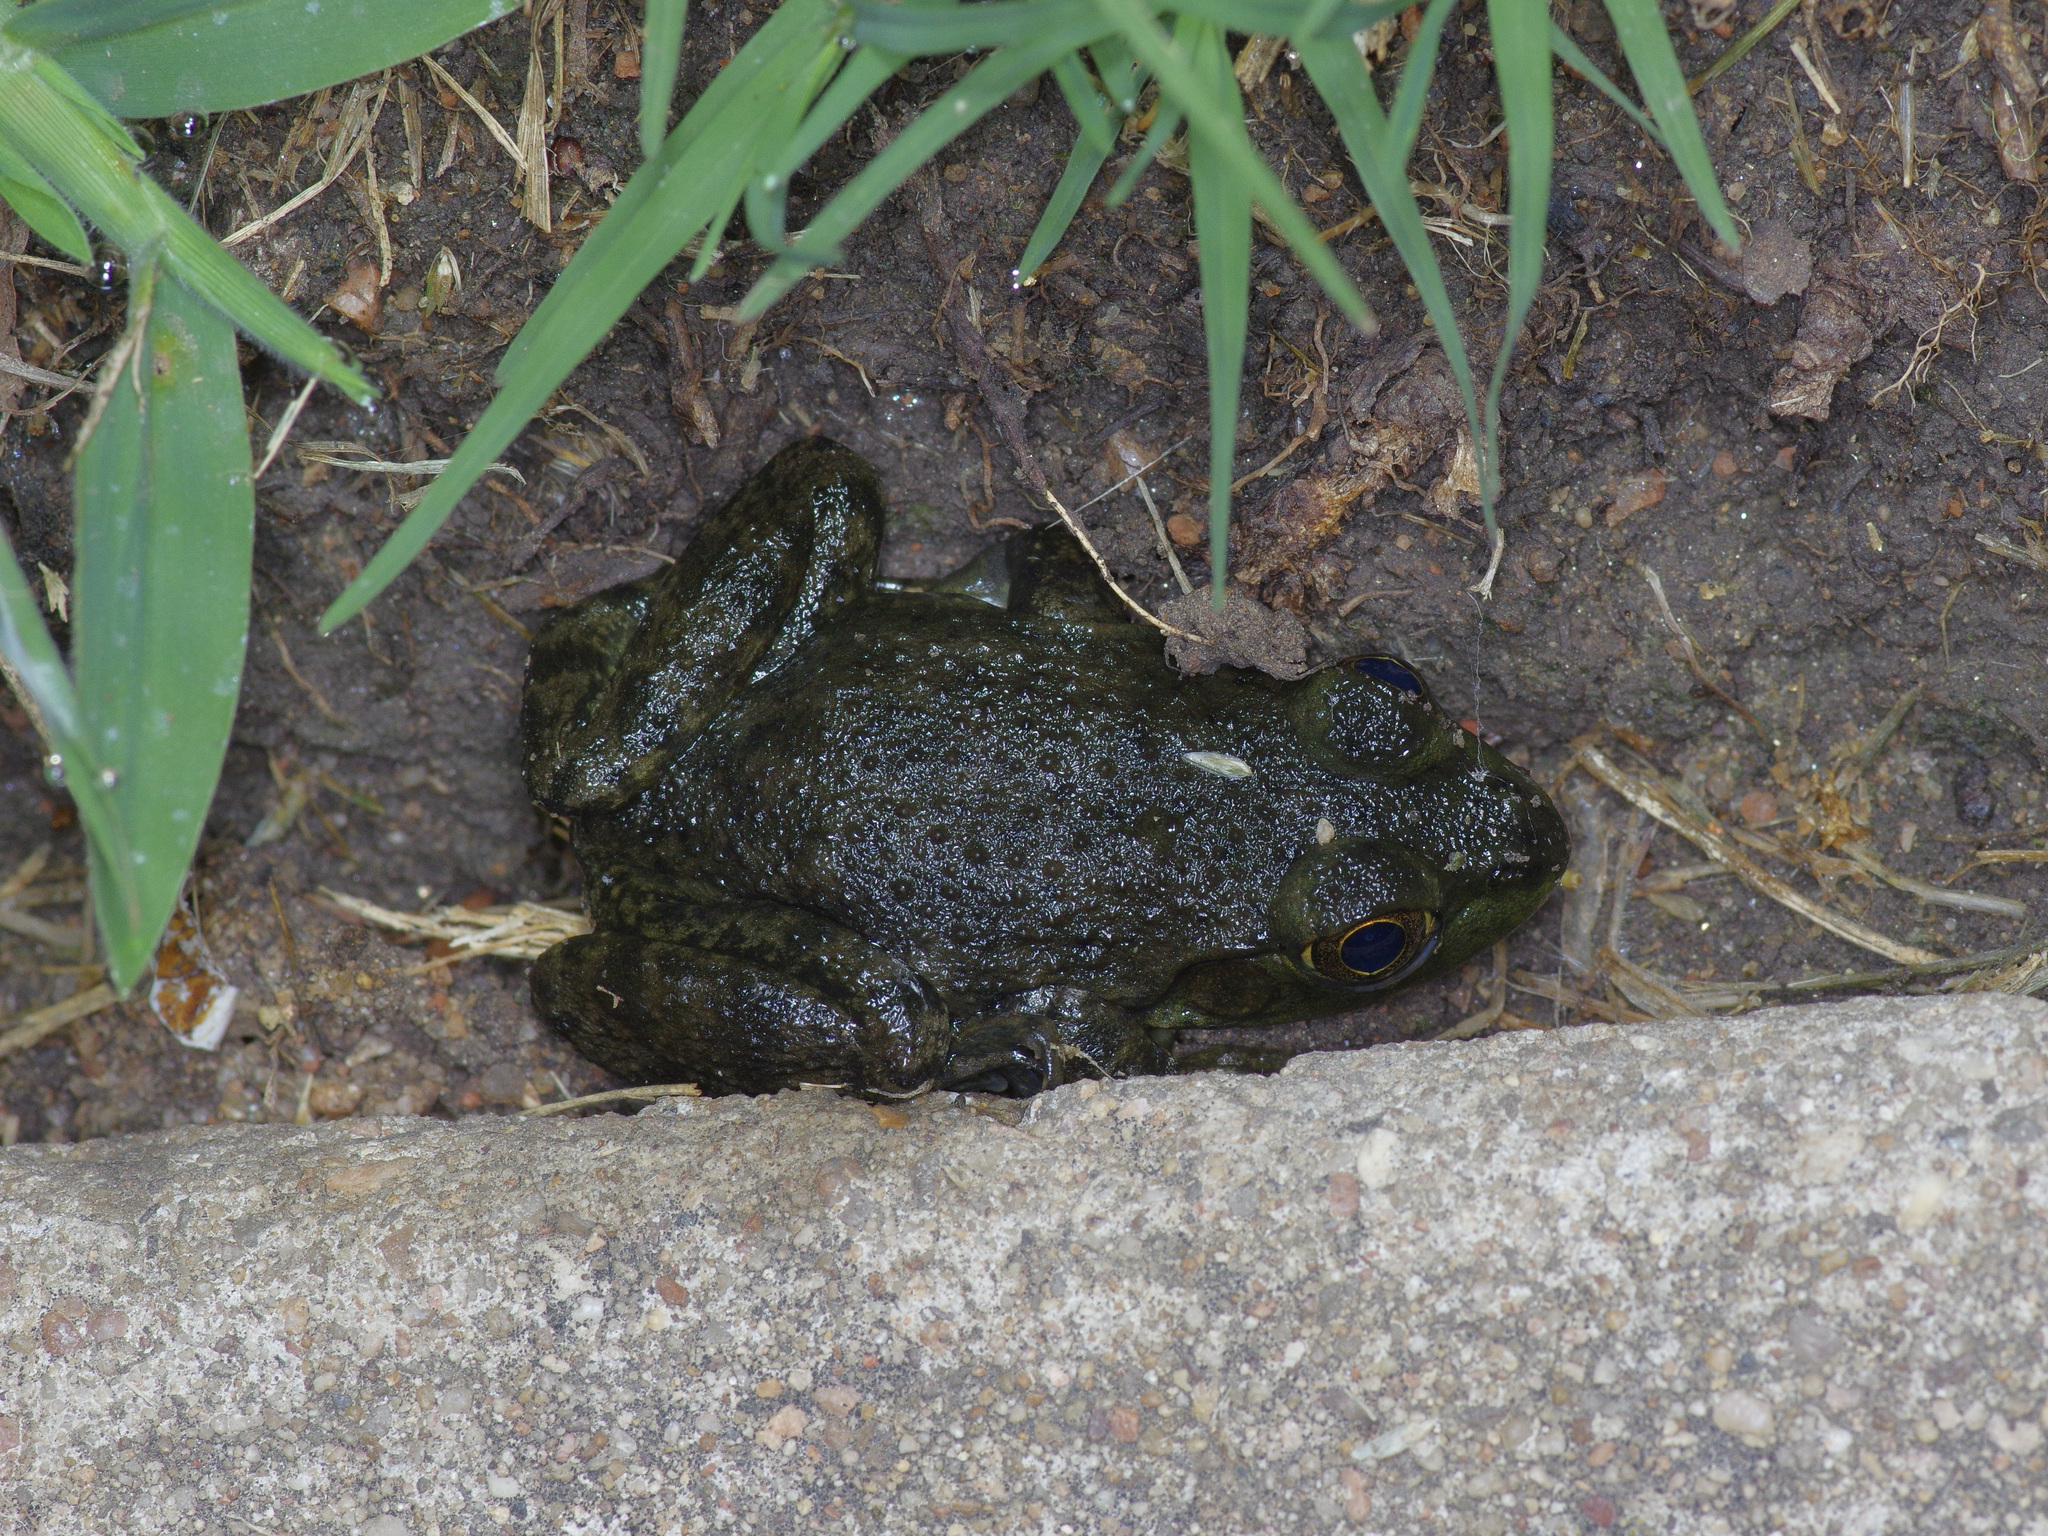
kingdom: Animalia
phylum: Chordata
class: Amphibia
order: Anura
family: Ranidae
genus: Lithobates
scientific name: Lithobates catesbeianus
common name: American bullfrog
